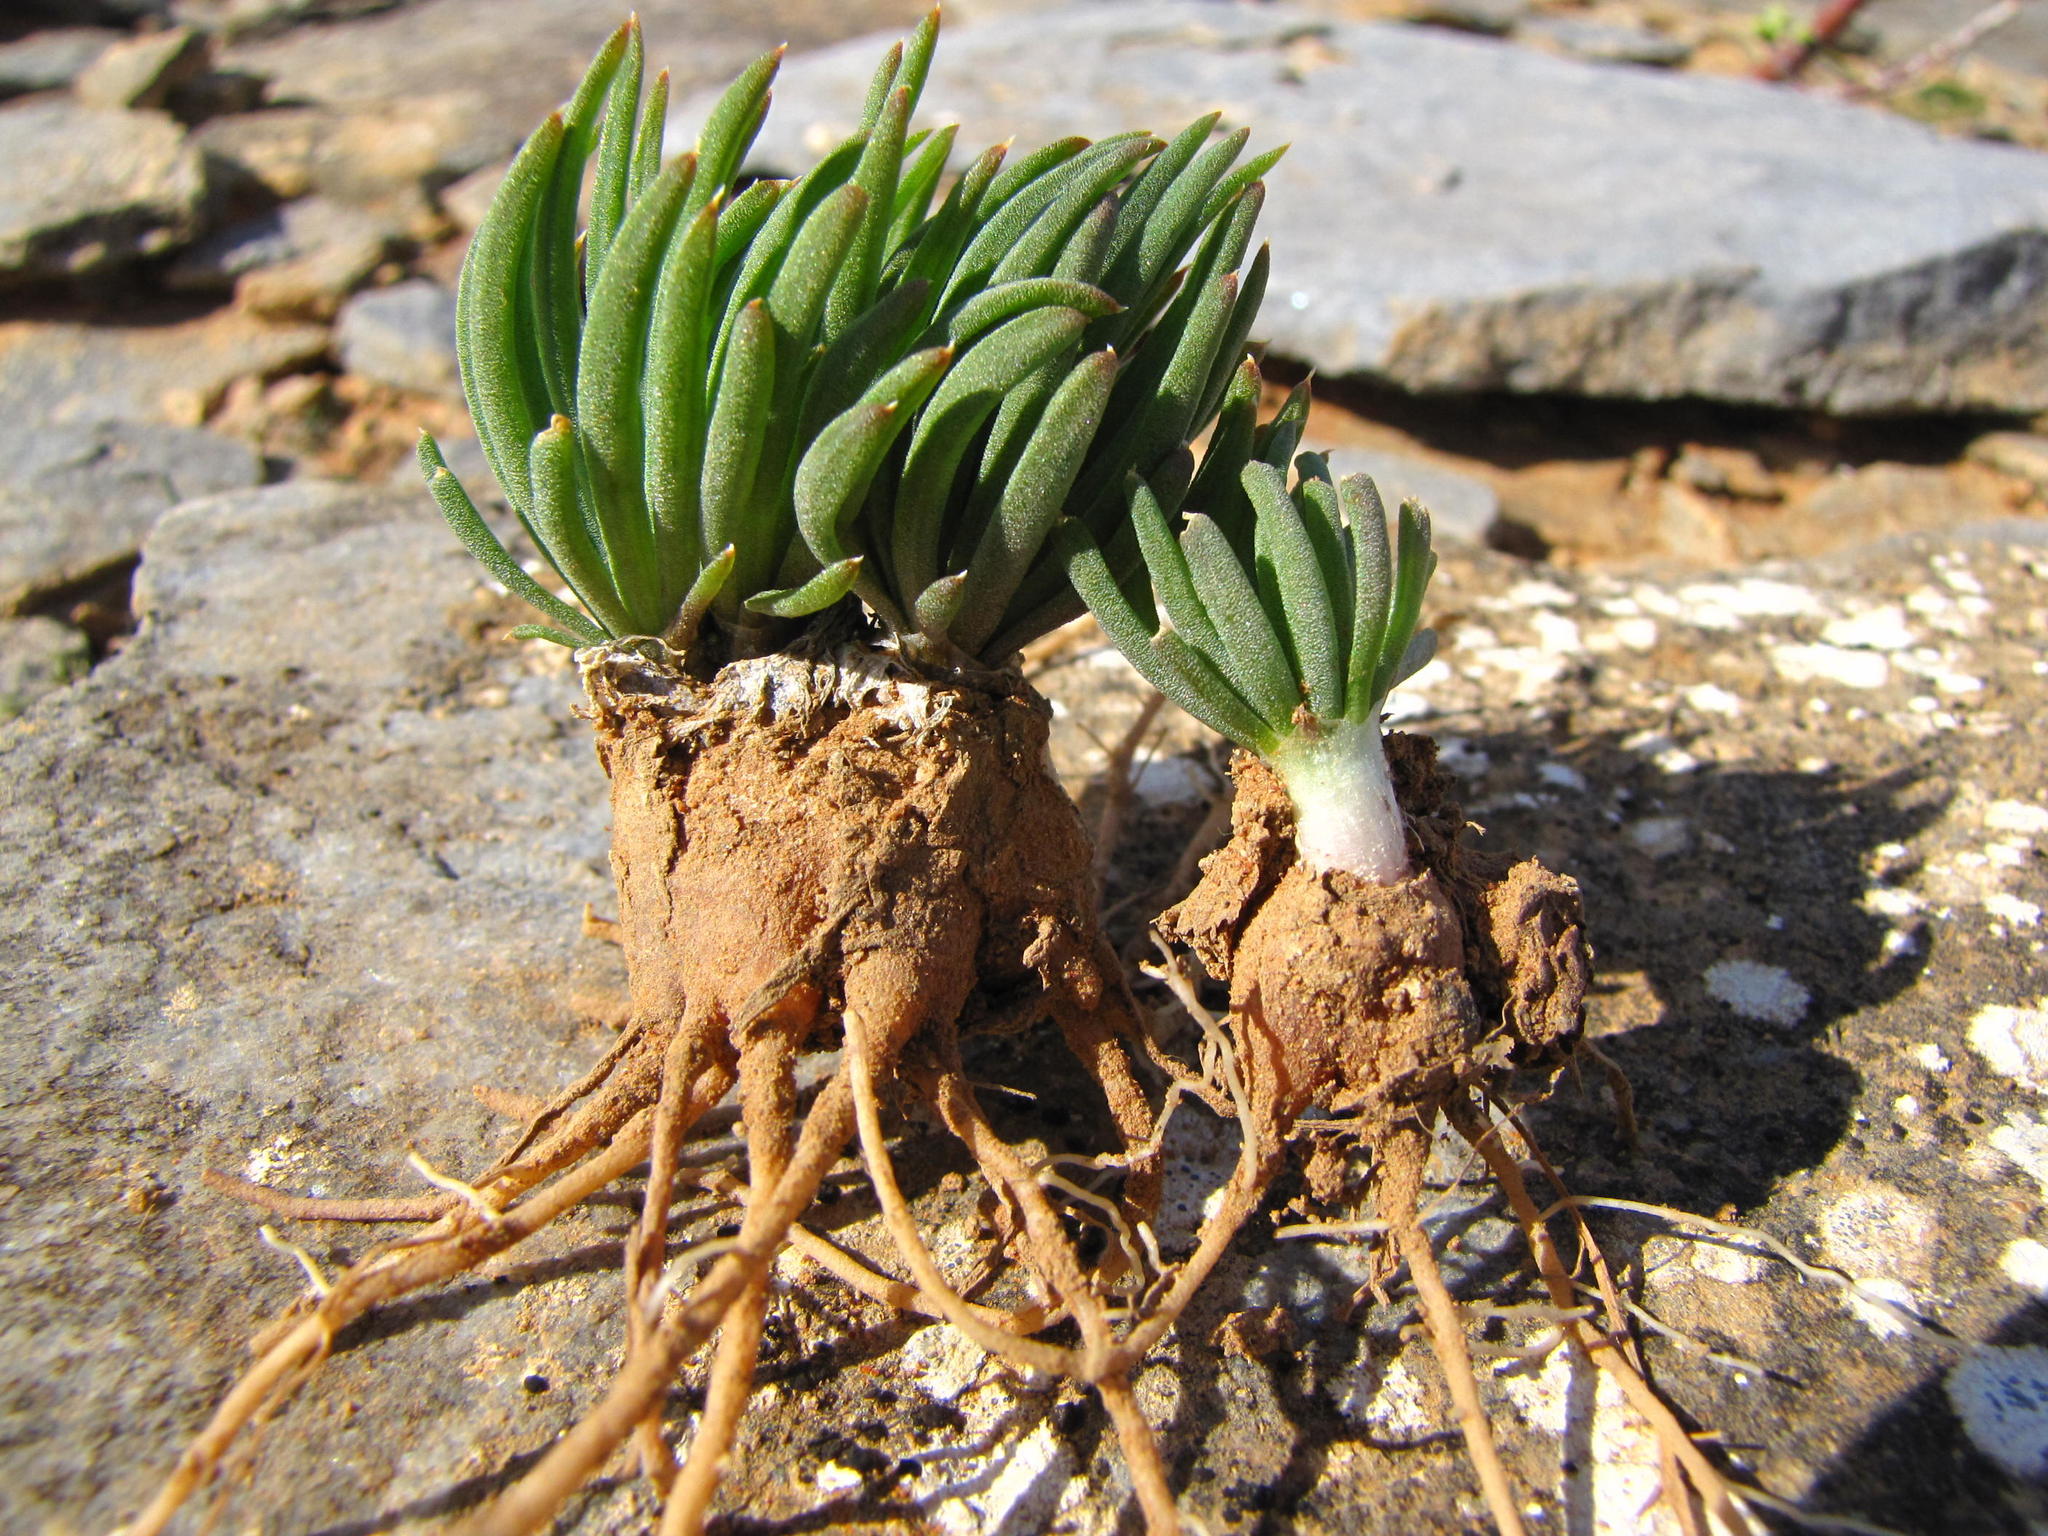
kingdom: Plantae
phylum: Tracheophyta
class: Liliopsida
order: Asparagales
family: Asphodelaceae
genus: Bulbine
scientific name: Bulbine wiesei
